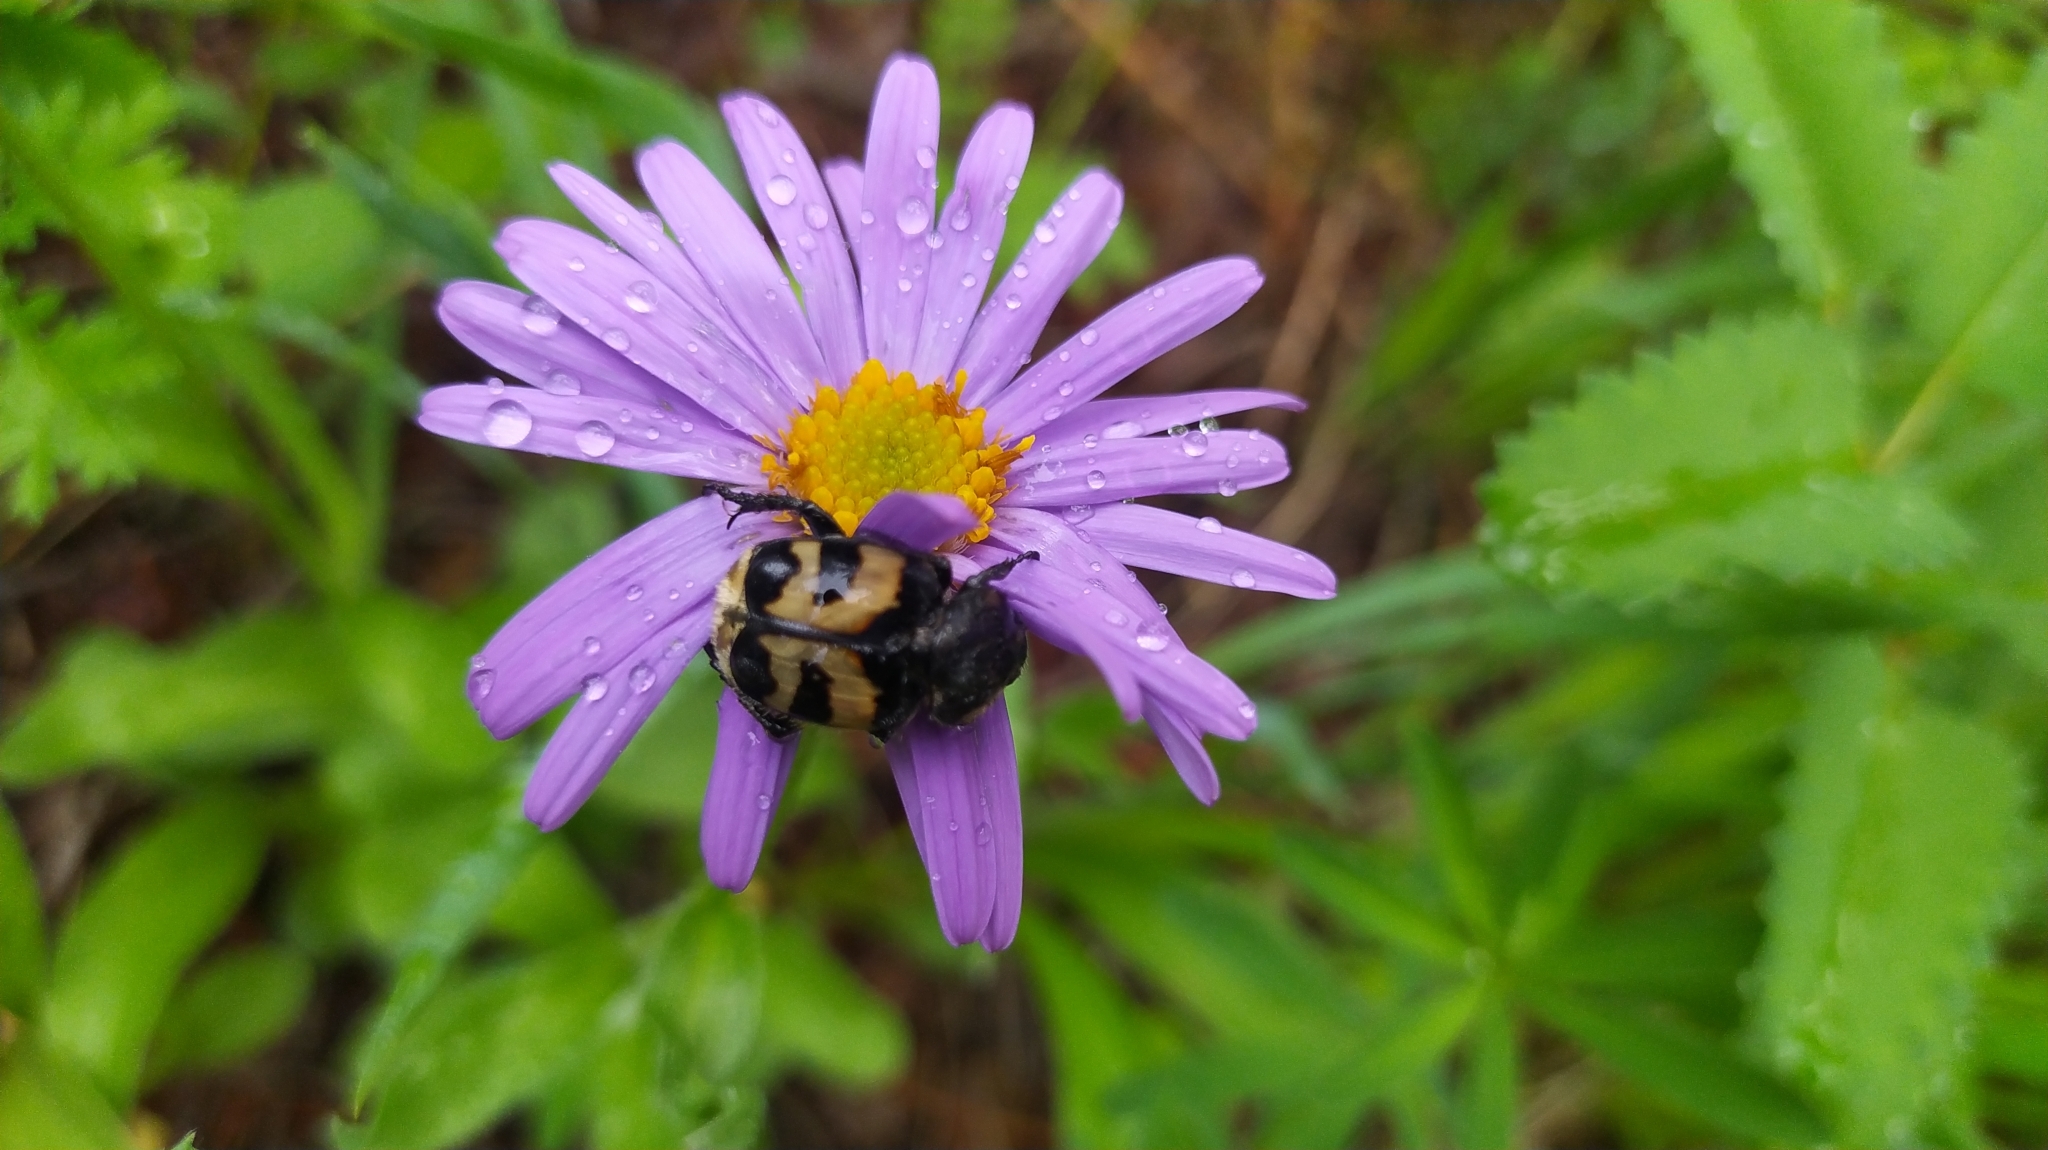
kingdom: Plantae
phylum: Tracheophyta
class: Magnoliopsida
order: Asterales
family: Asteraceae
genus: Aster
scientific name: Aster alpinus
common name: Alpine aster
